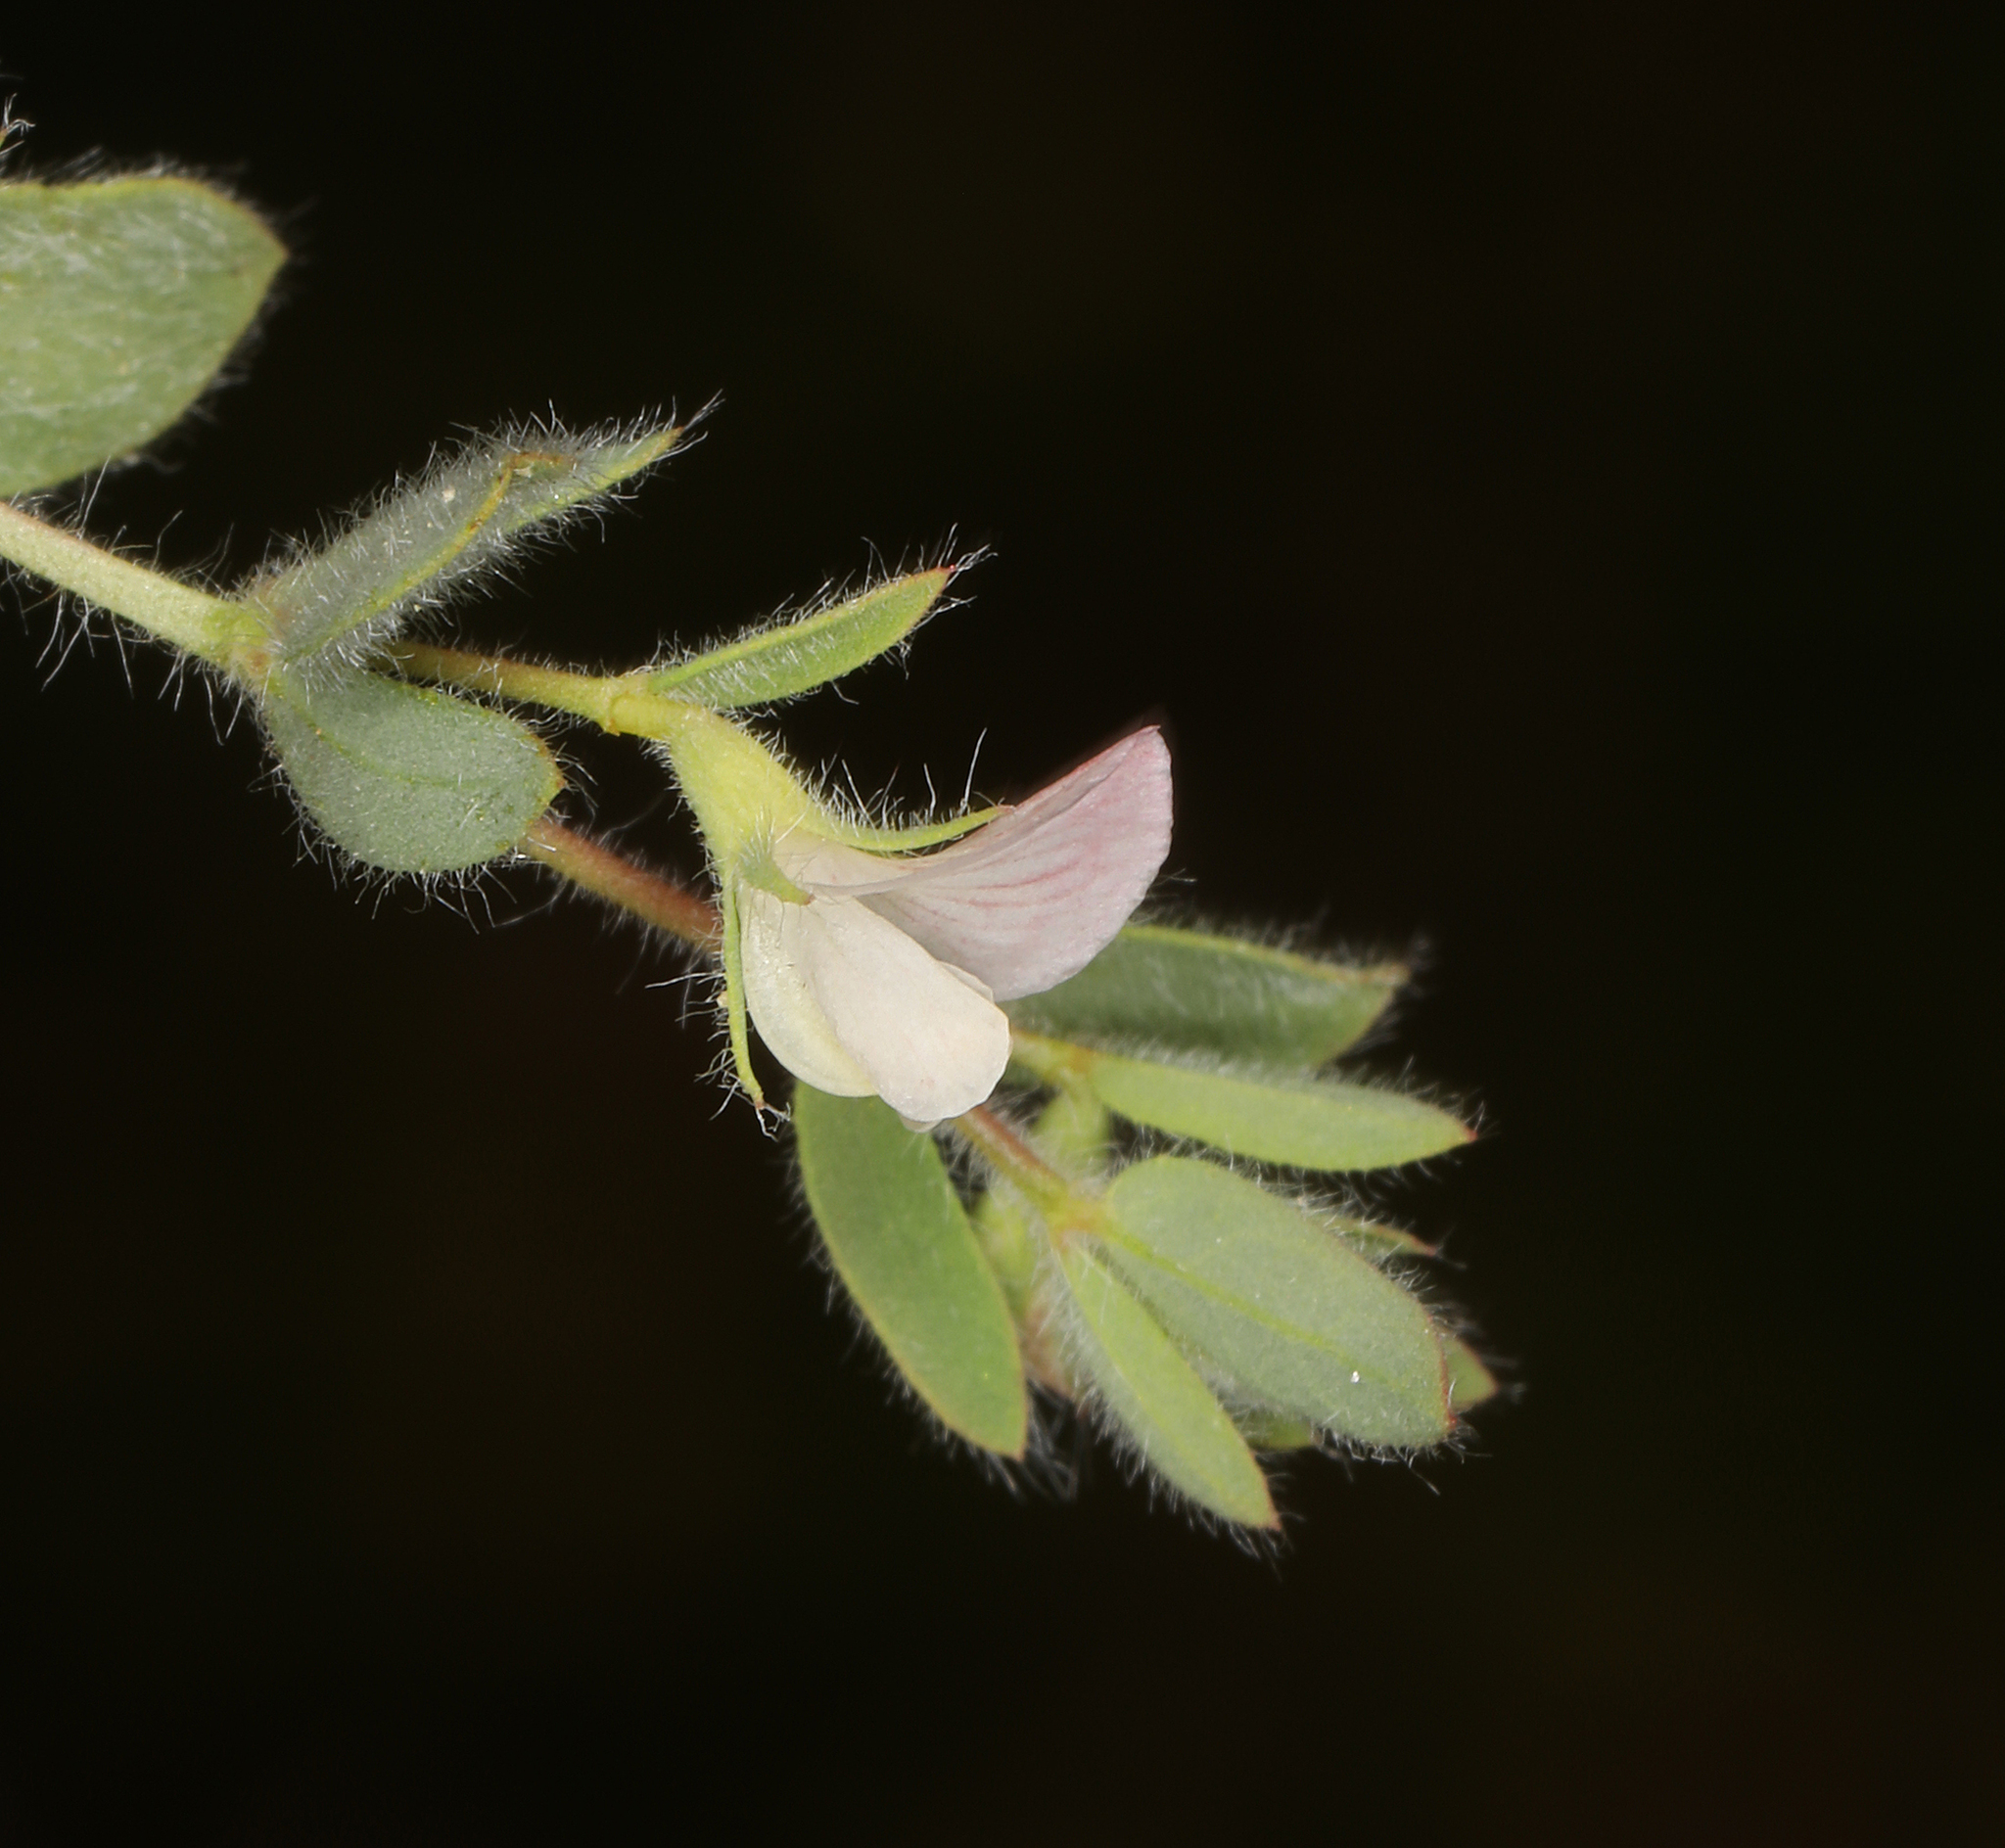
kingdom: Plantae
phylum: Tracheophyta
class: Magnoliopsida
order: Fabales
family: Fabaceae
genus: Acmispon
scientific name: Acmispon americanus
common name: American bird's-foot trefoil
